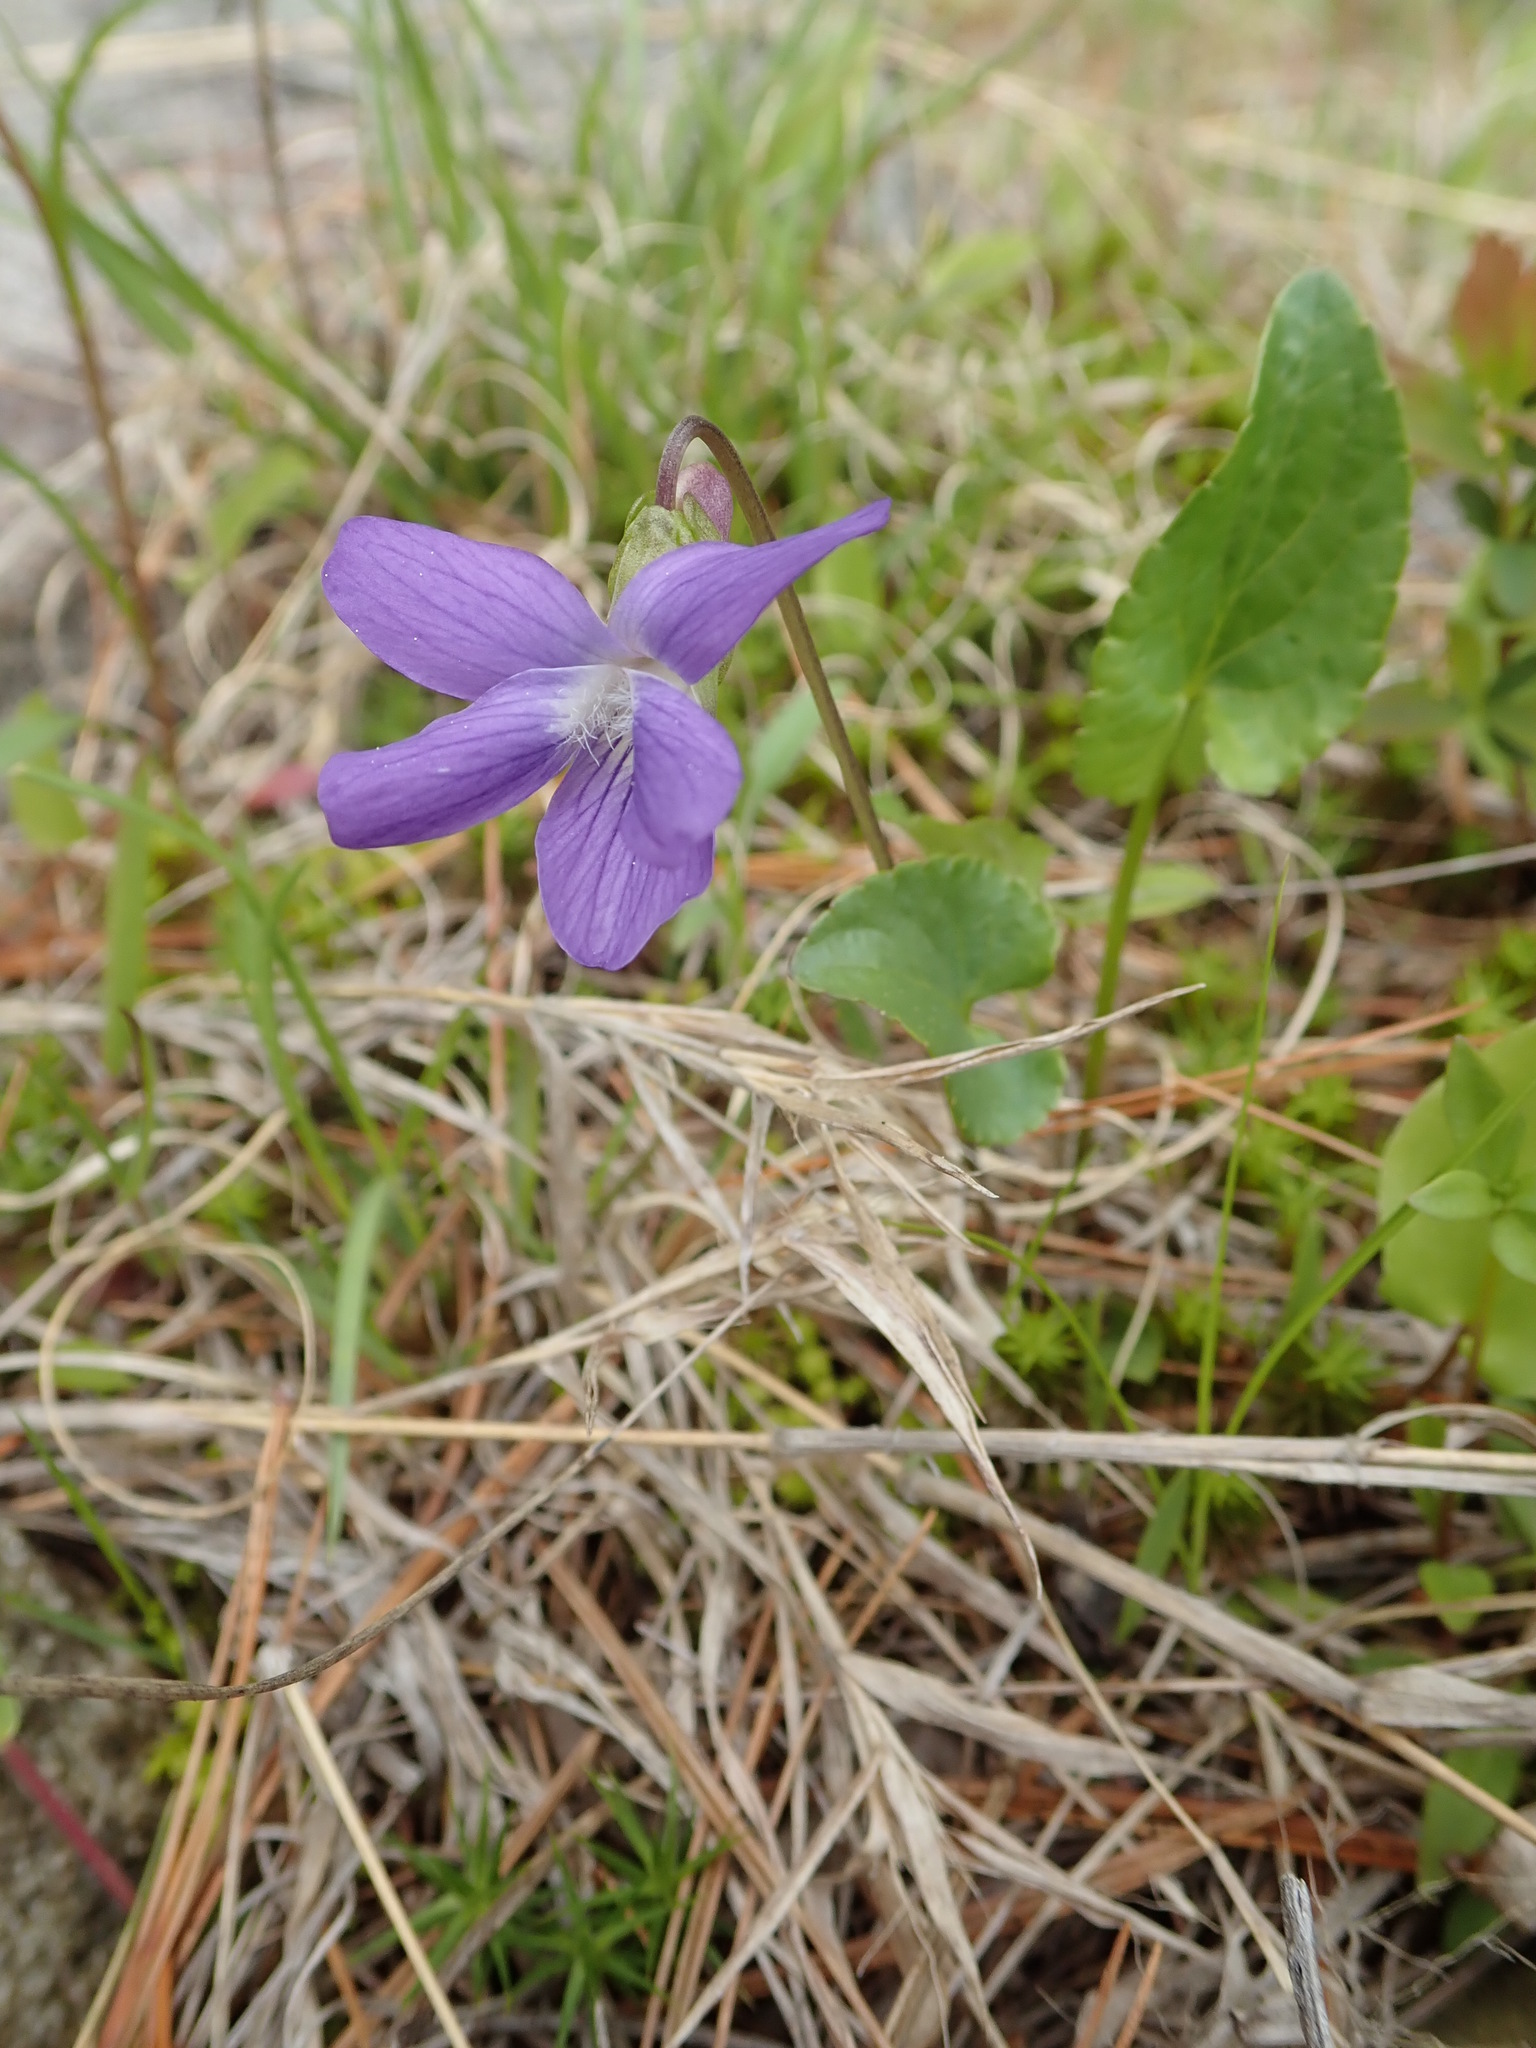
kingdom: Plantae
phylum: Tracheophyta
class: Magnoliopsida
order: Malpighiales
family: Violaceae
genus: Viola
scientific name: Viola novae-angliae
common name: New england blue violet
